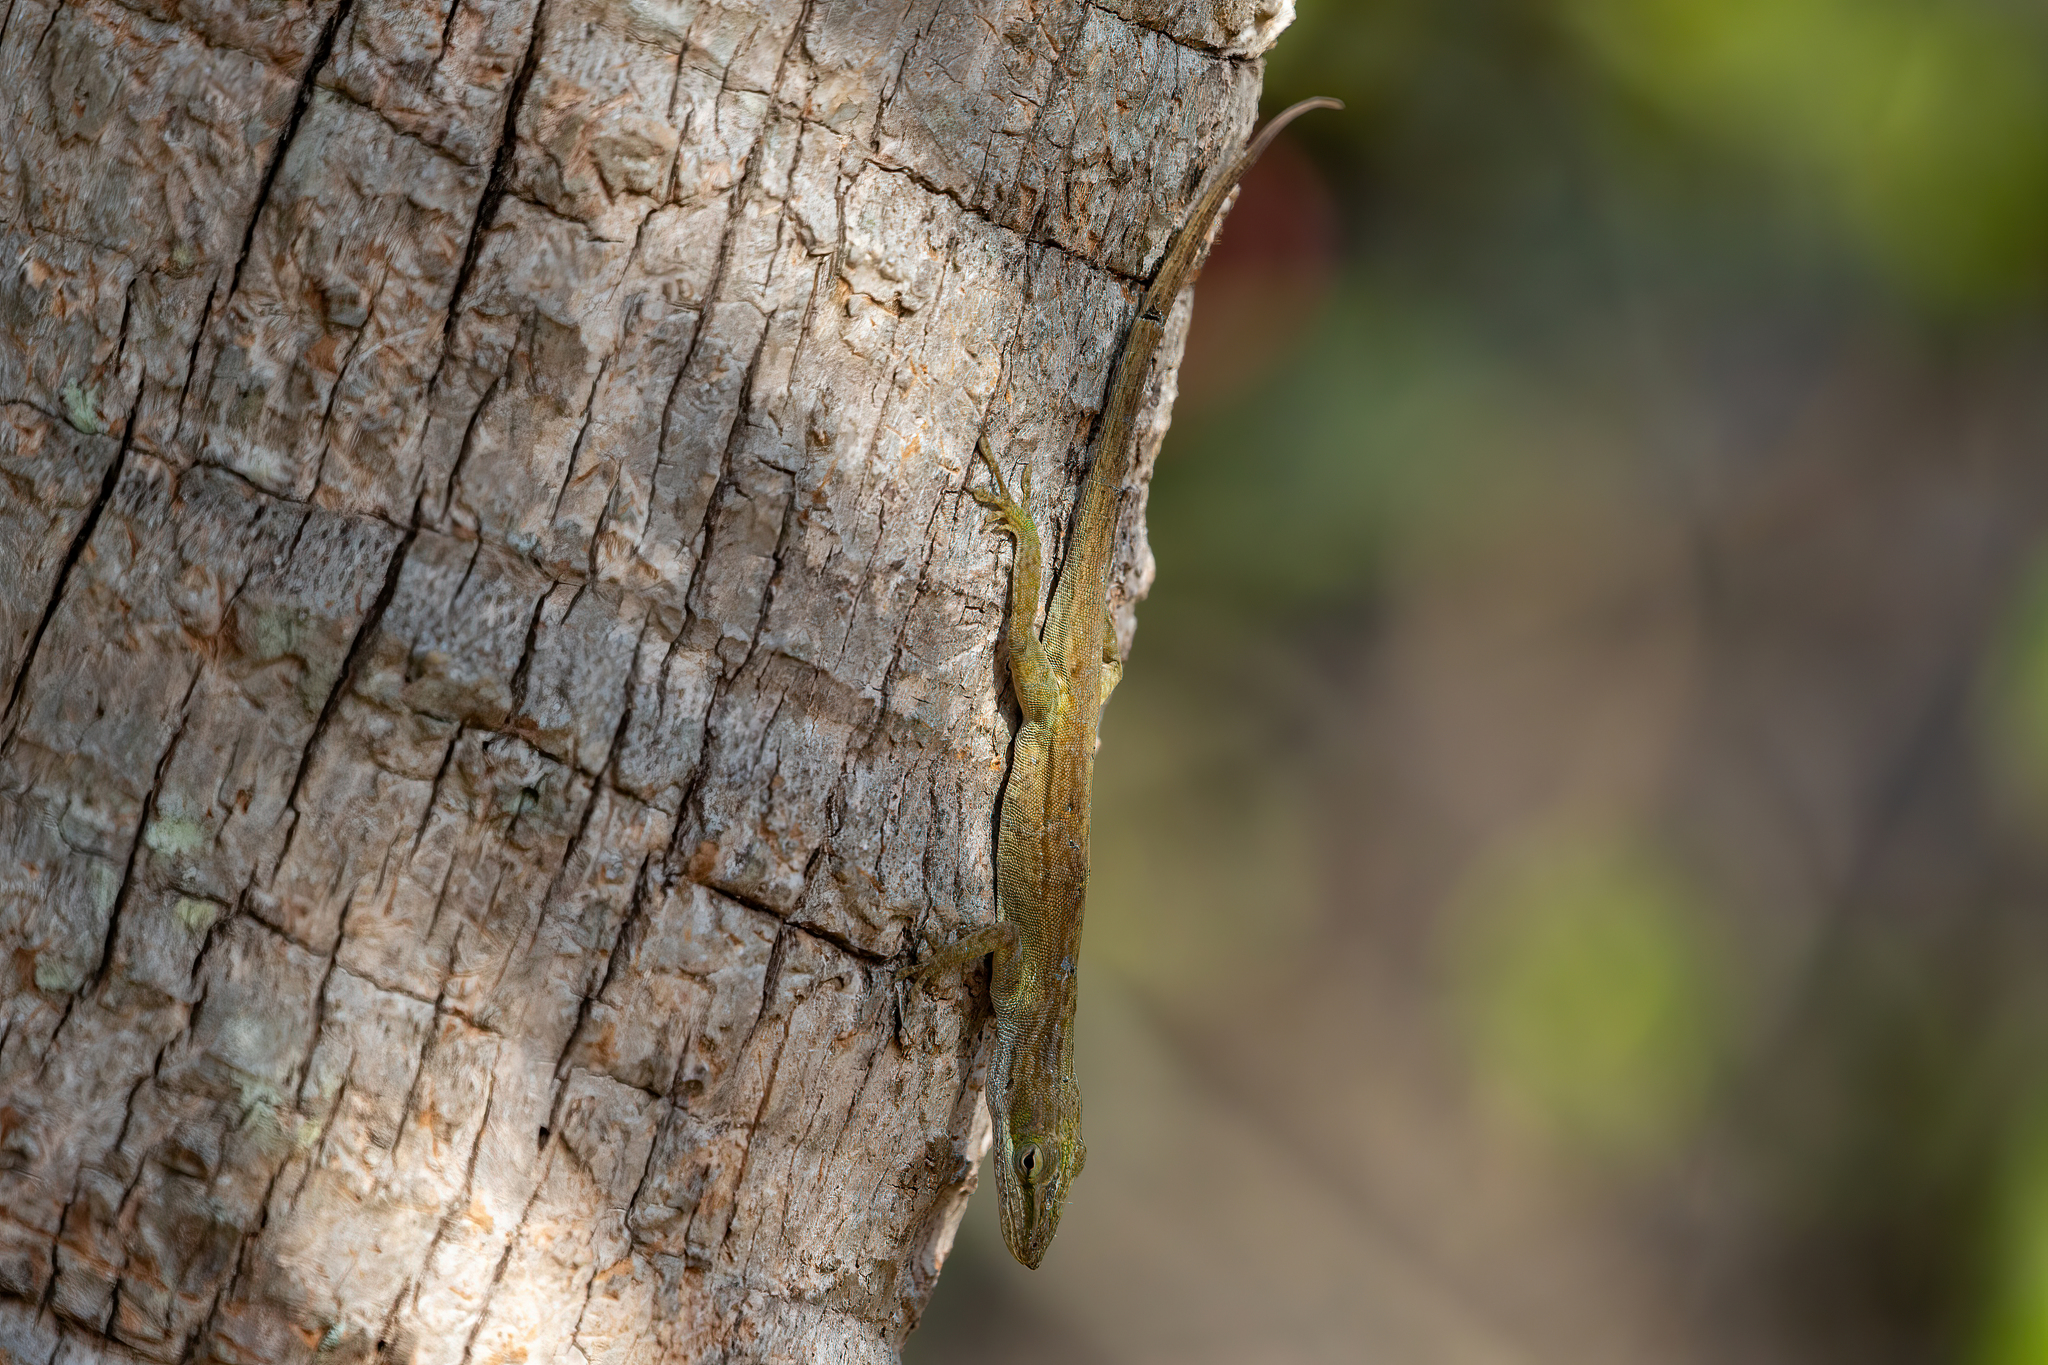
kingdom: Animalia
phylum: Chordata
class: Squamata
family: Dactyloidae
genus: Anolis
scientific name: Anolis carolinensis
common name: Green anole
